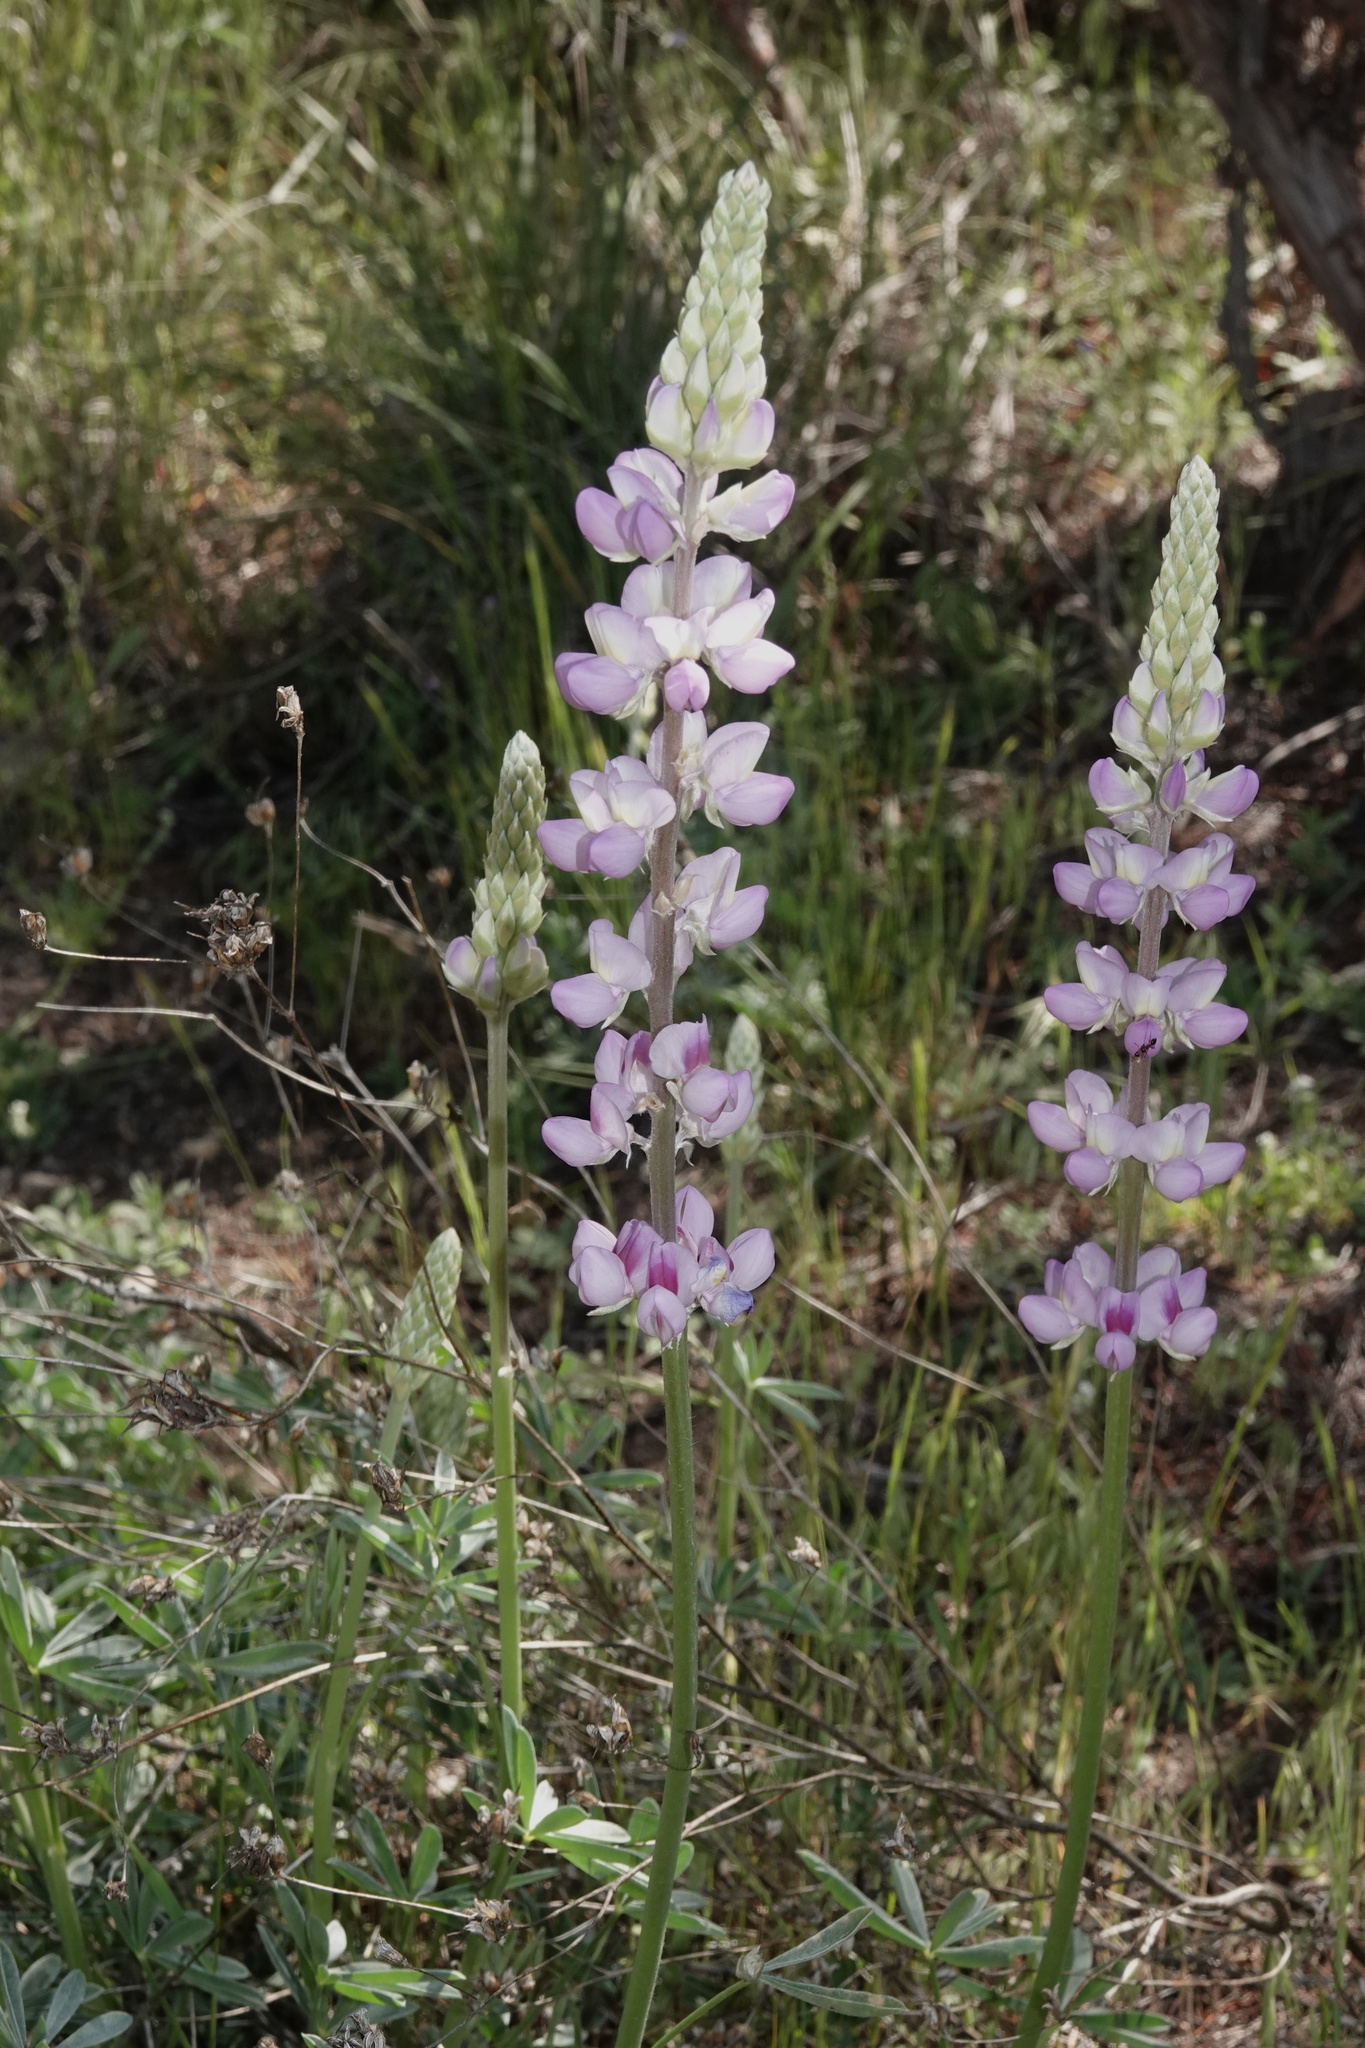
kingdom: Plantae
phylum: Tracheophyta
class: Magnoliopsida
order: Fabales
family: Fabaceae
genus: Lupinus
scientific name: Lupinus excubitus
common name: Grape soda lupine
